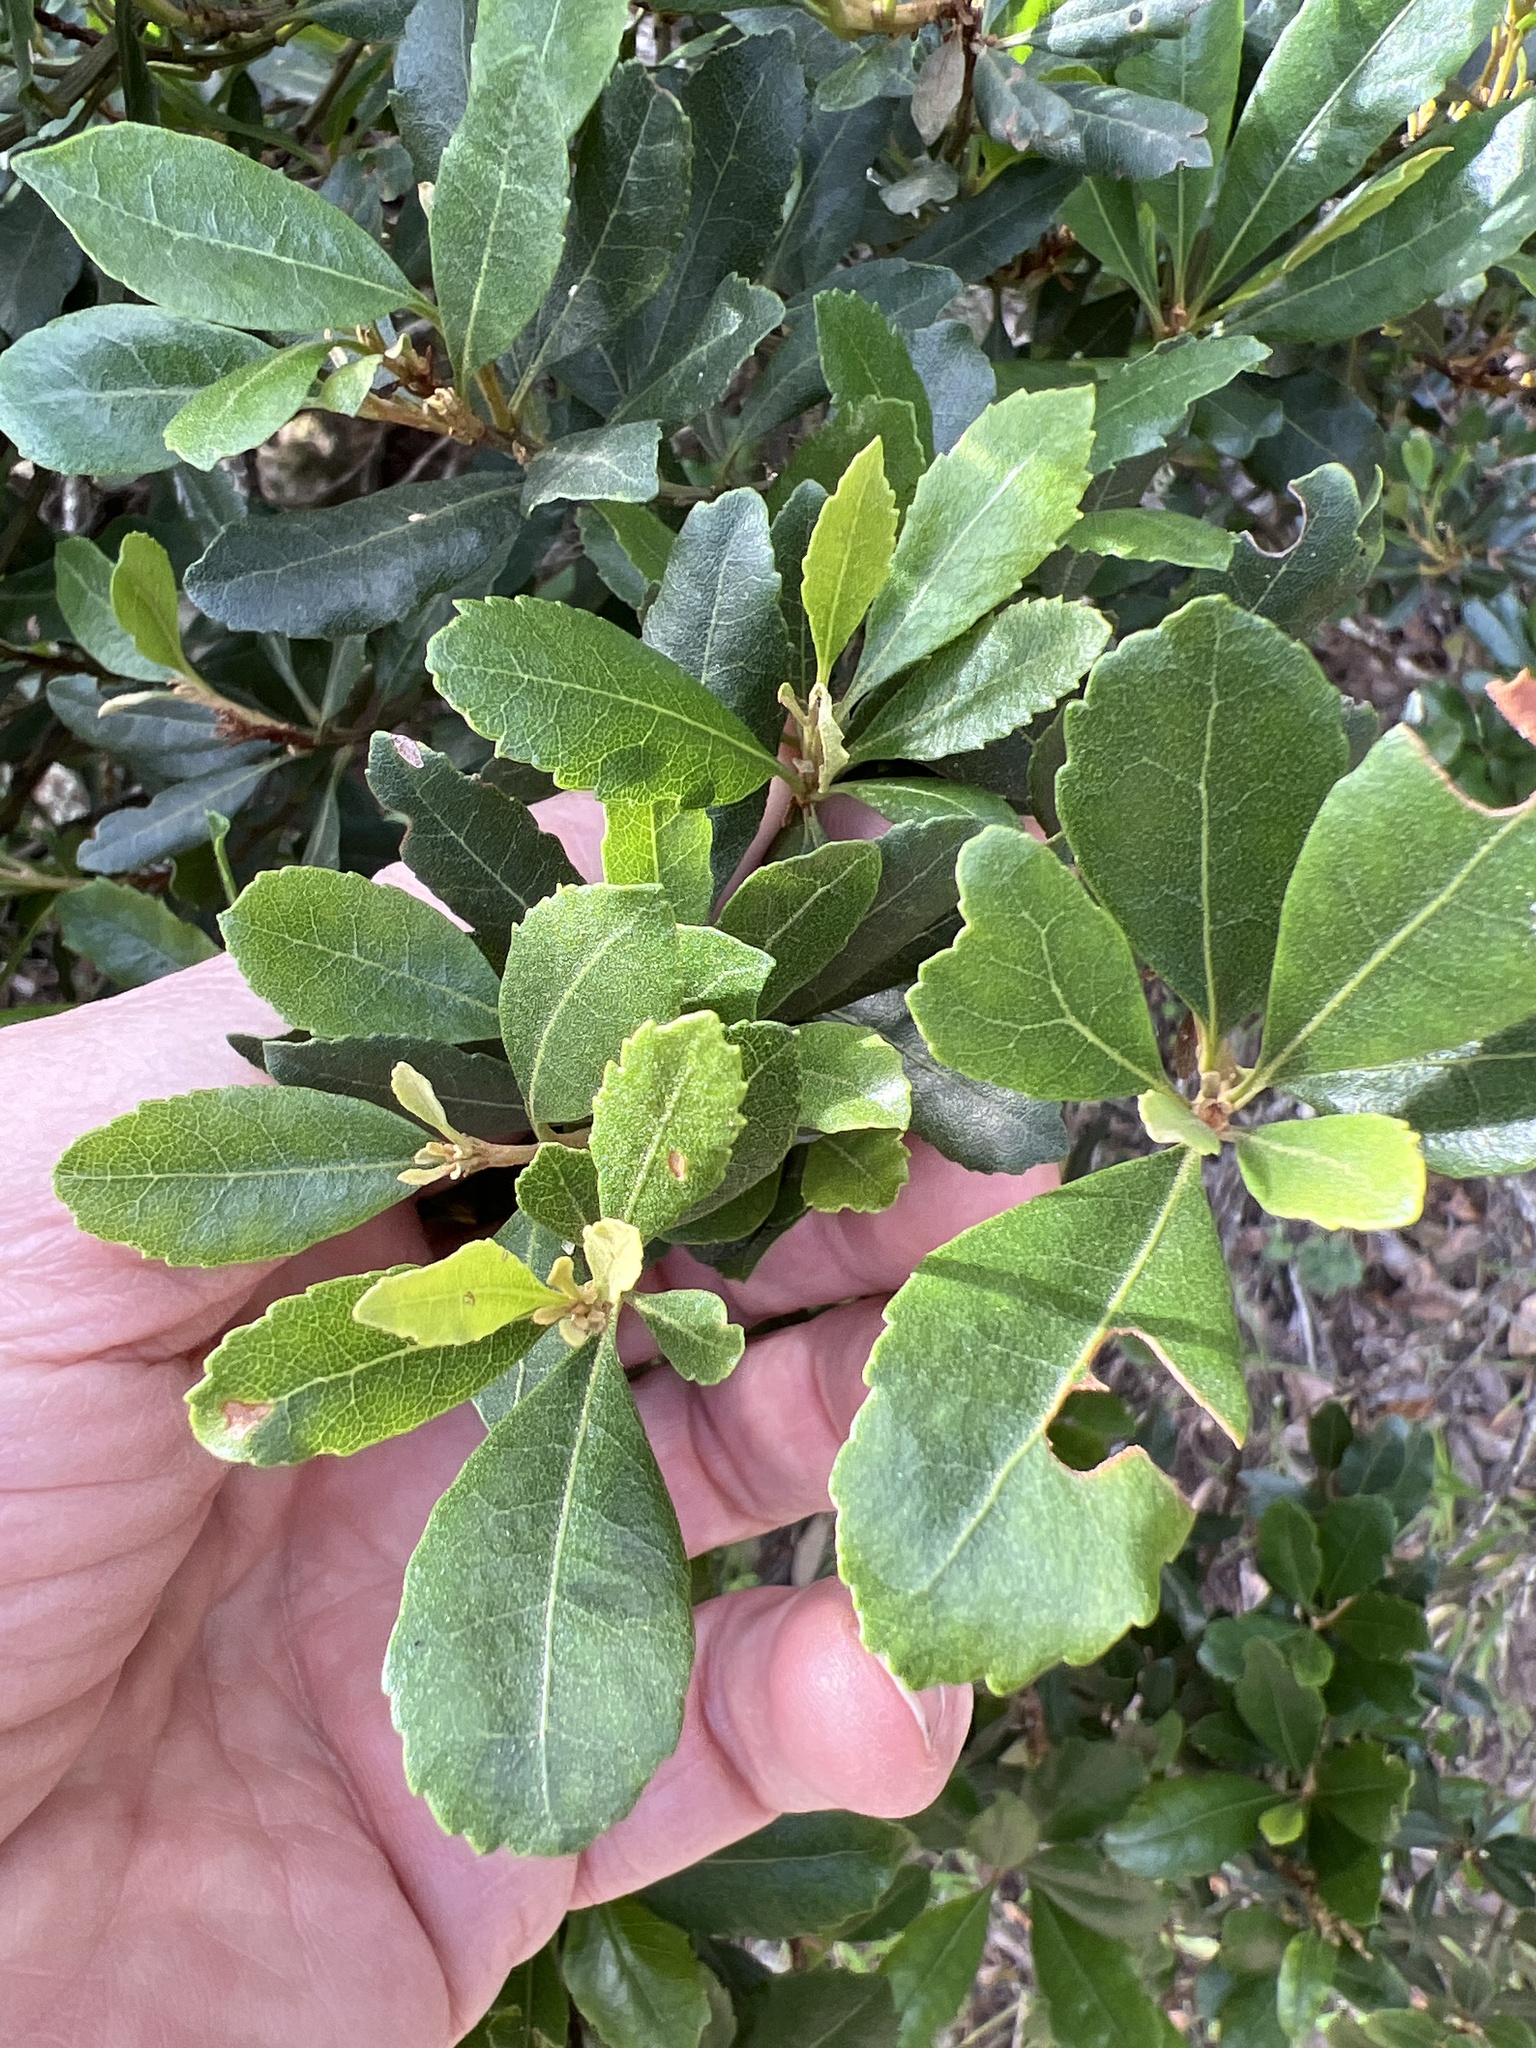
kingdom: Plantae
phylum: Tracheophyta
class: Magnoliopsida
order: Fagales
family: Myricaceae
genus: Morella
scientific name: Morella faya
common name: Firetree
